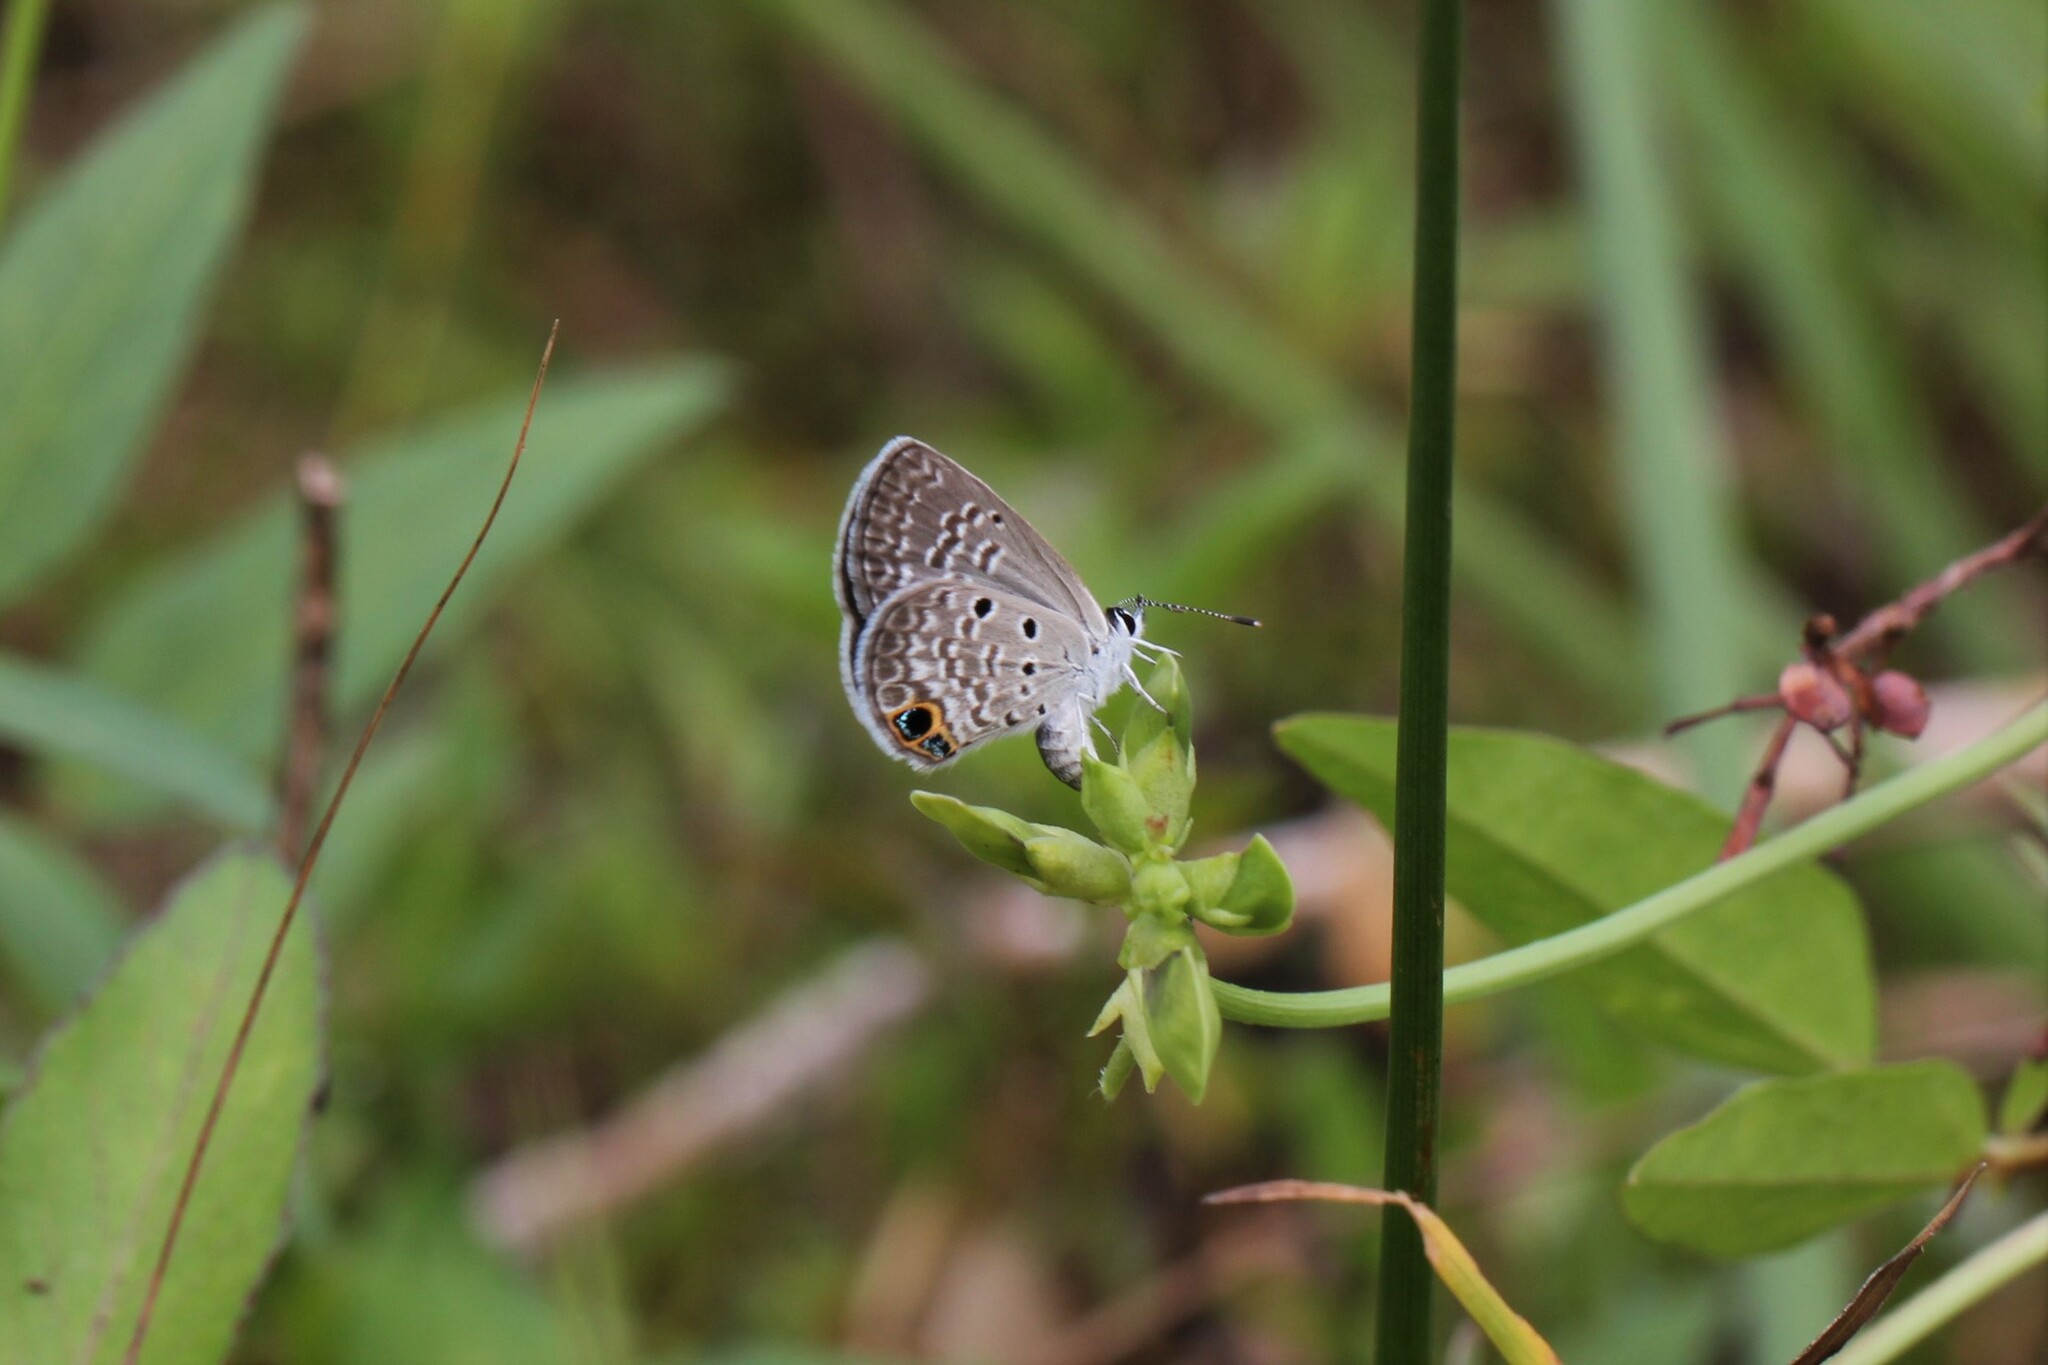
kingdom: Animalia
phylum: Arthropoda
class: Insecta
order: Lepidoptera
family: Lycaenidae
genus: Hemiargus
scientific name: Hemiargus ceraunus
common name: Ceraunus blue
